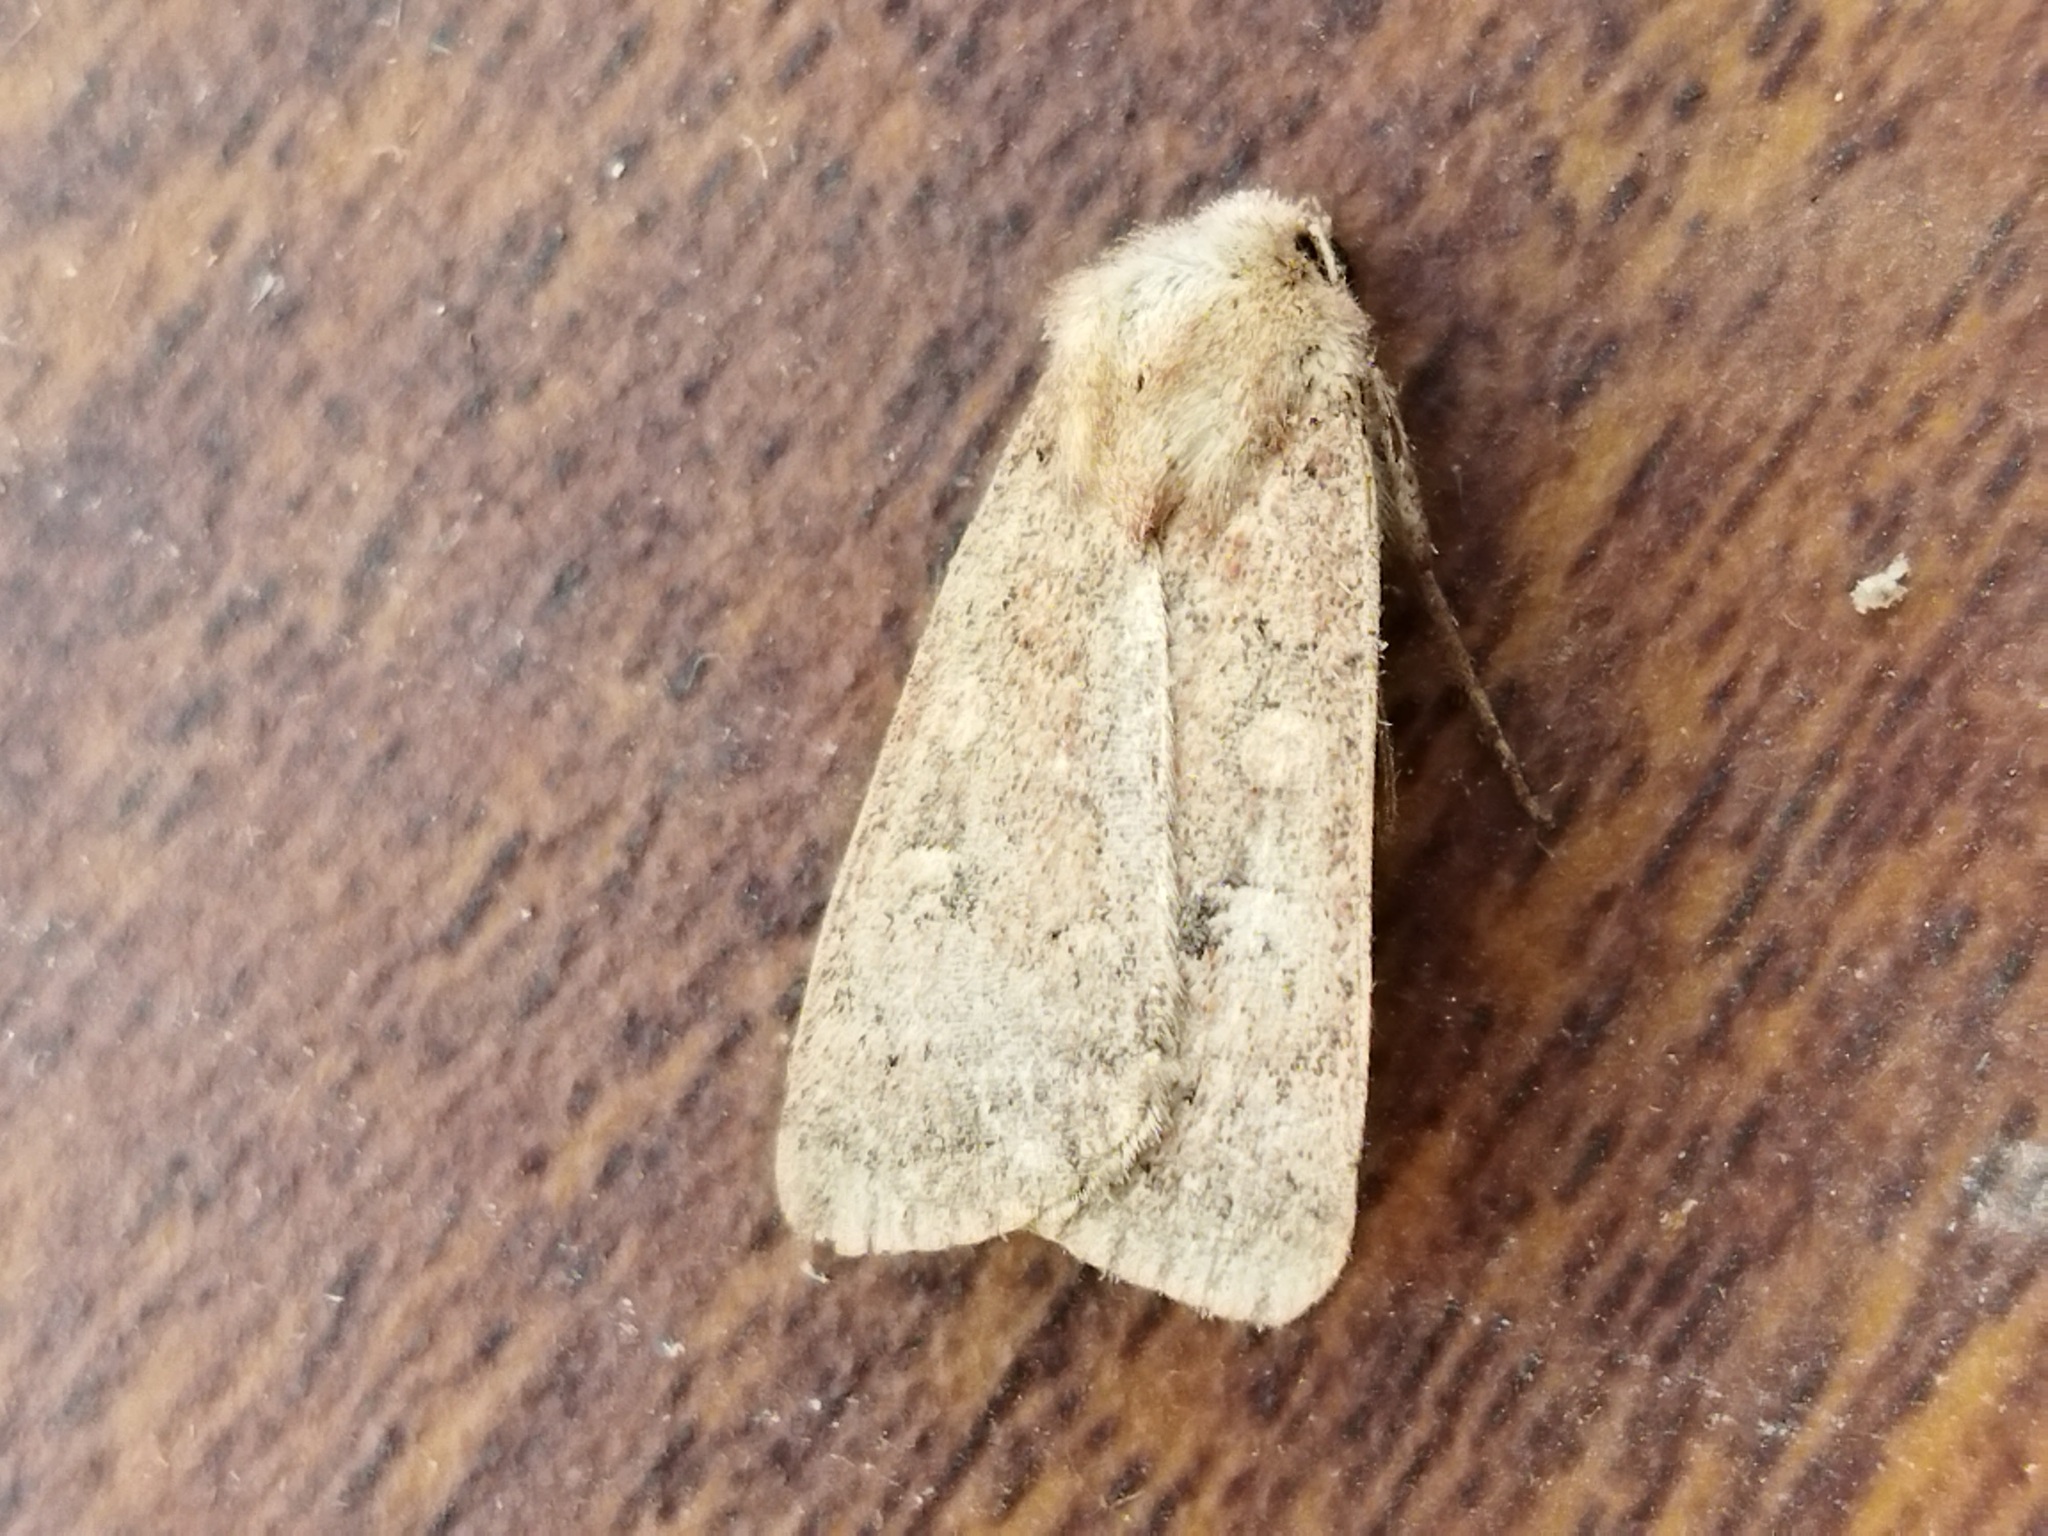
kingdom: Animalia
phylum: Arthropoda
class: Insecta
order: Lepidoptera
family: Noctuidae
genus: Xestia
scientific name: Xestia xanthographa
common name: Square-spot rustic
